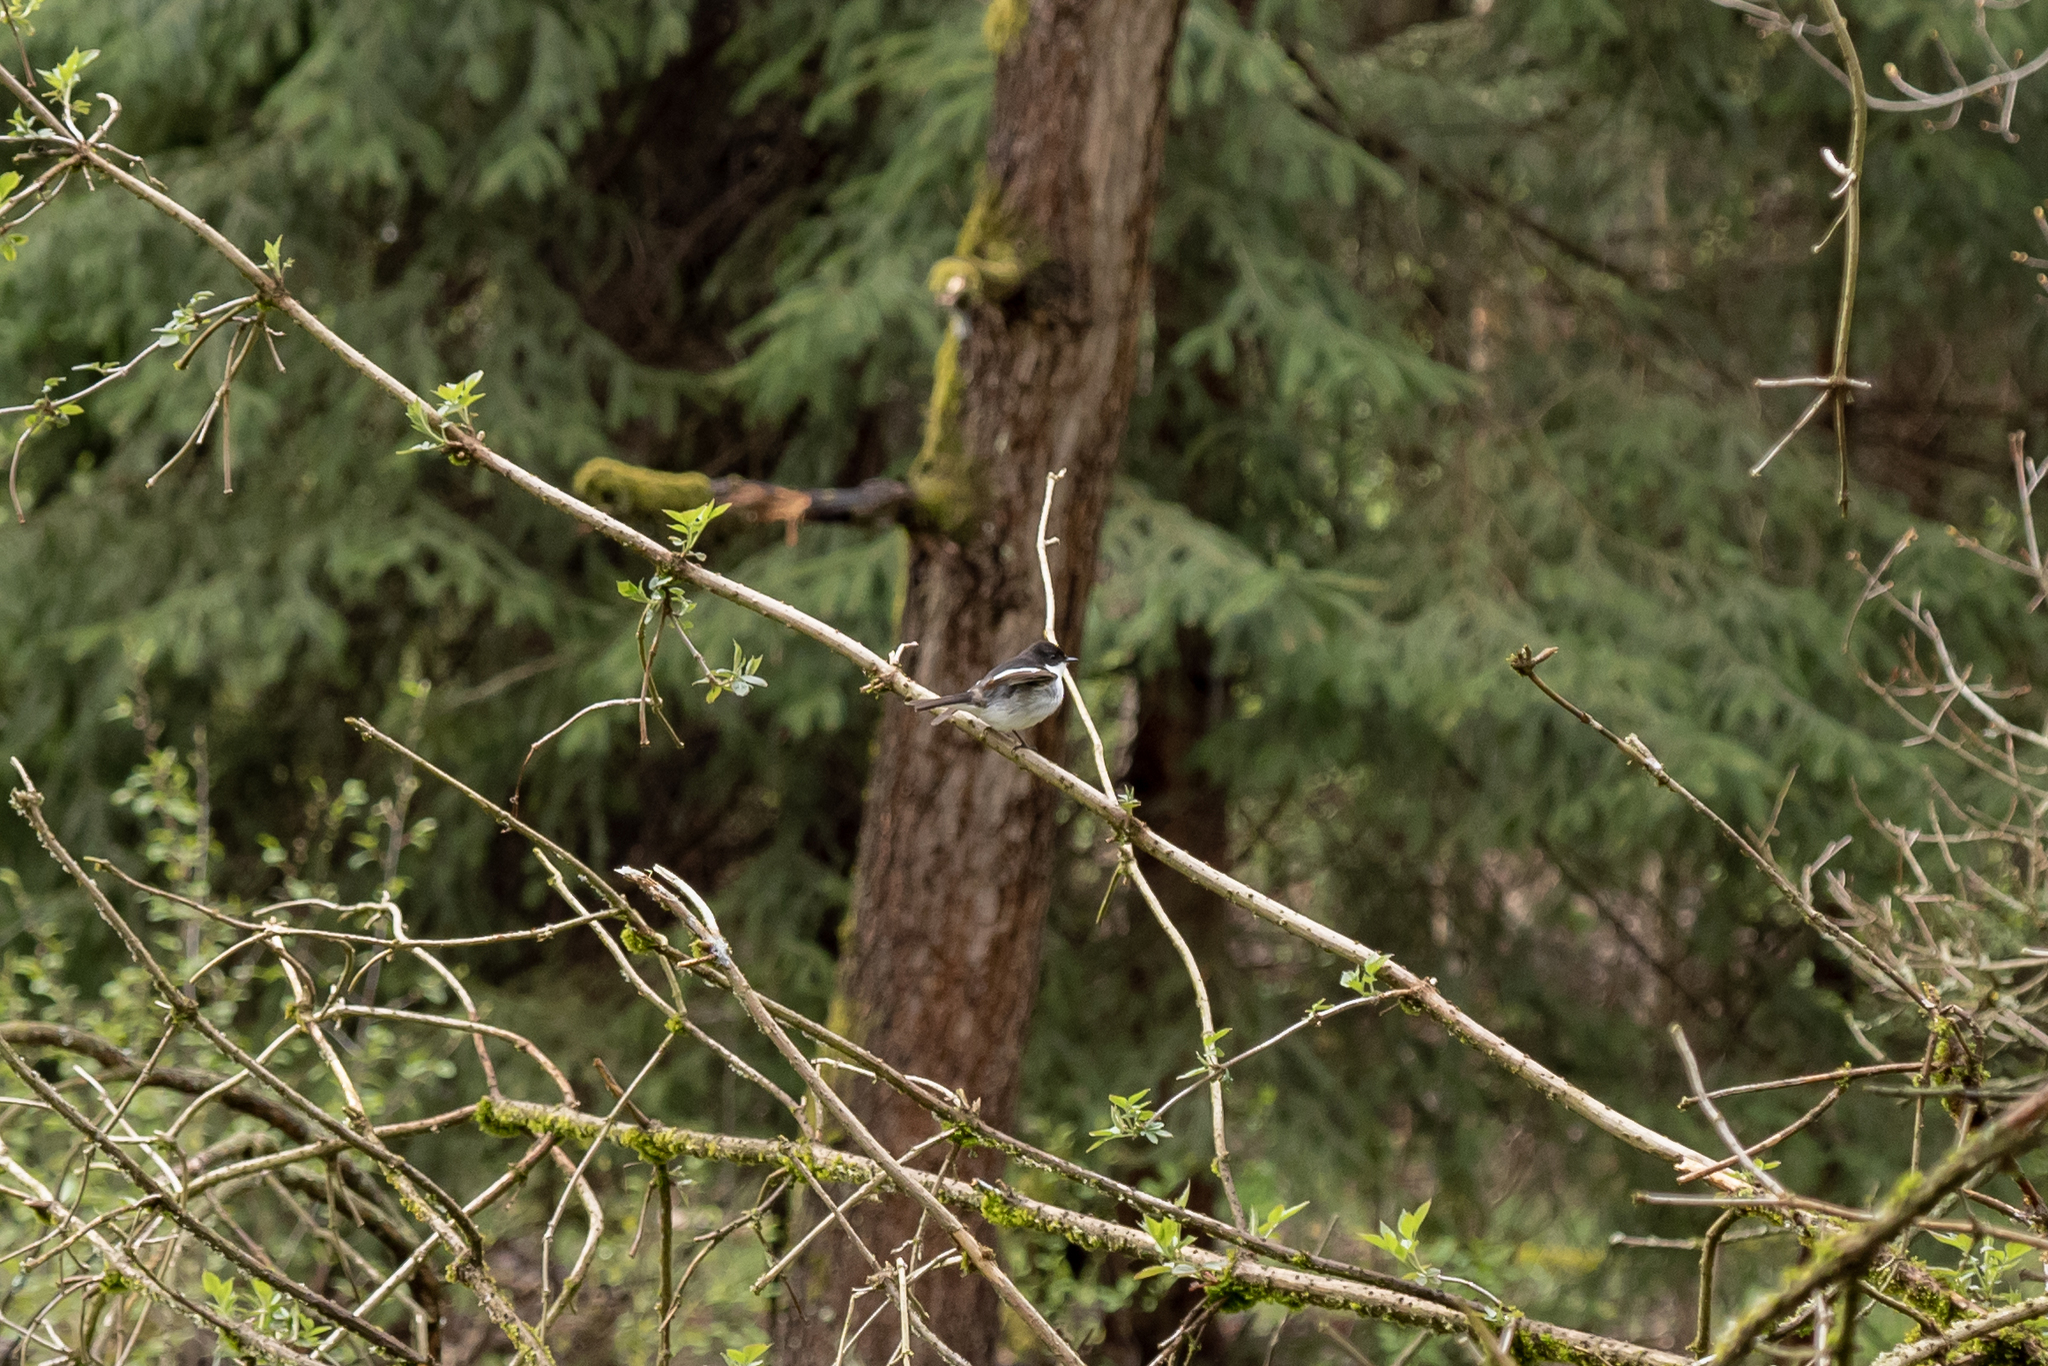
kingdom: Animalia
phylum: Chordata
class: Aves
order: Passeriformes
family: Muscicapidae
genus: Ficedula
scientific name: Ficedula hypoleuca
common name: European pied flycatcher
